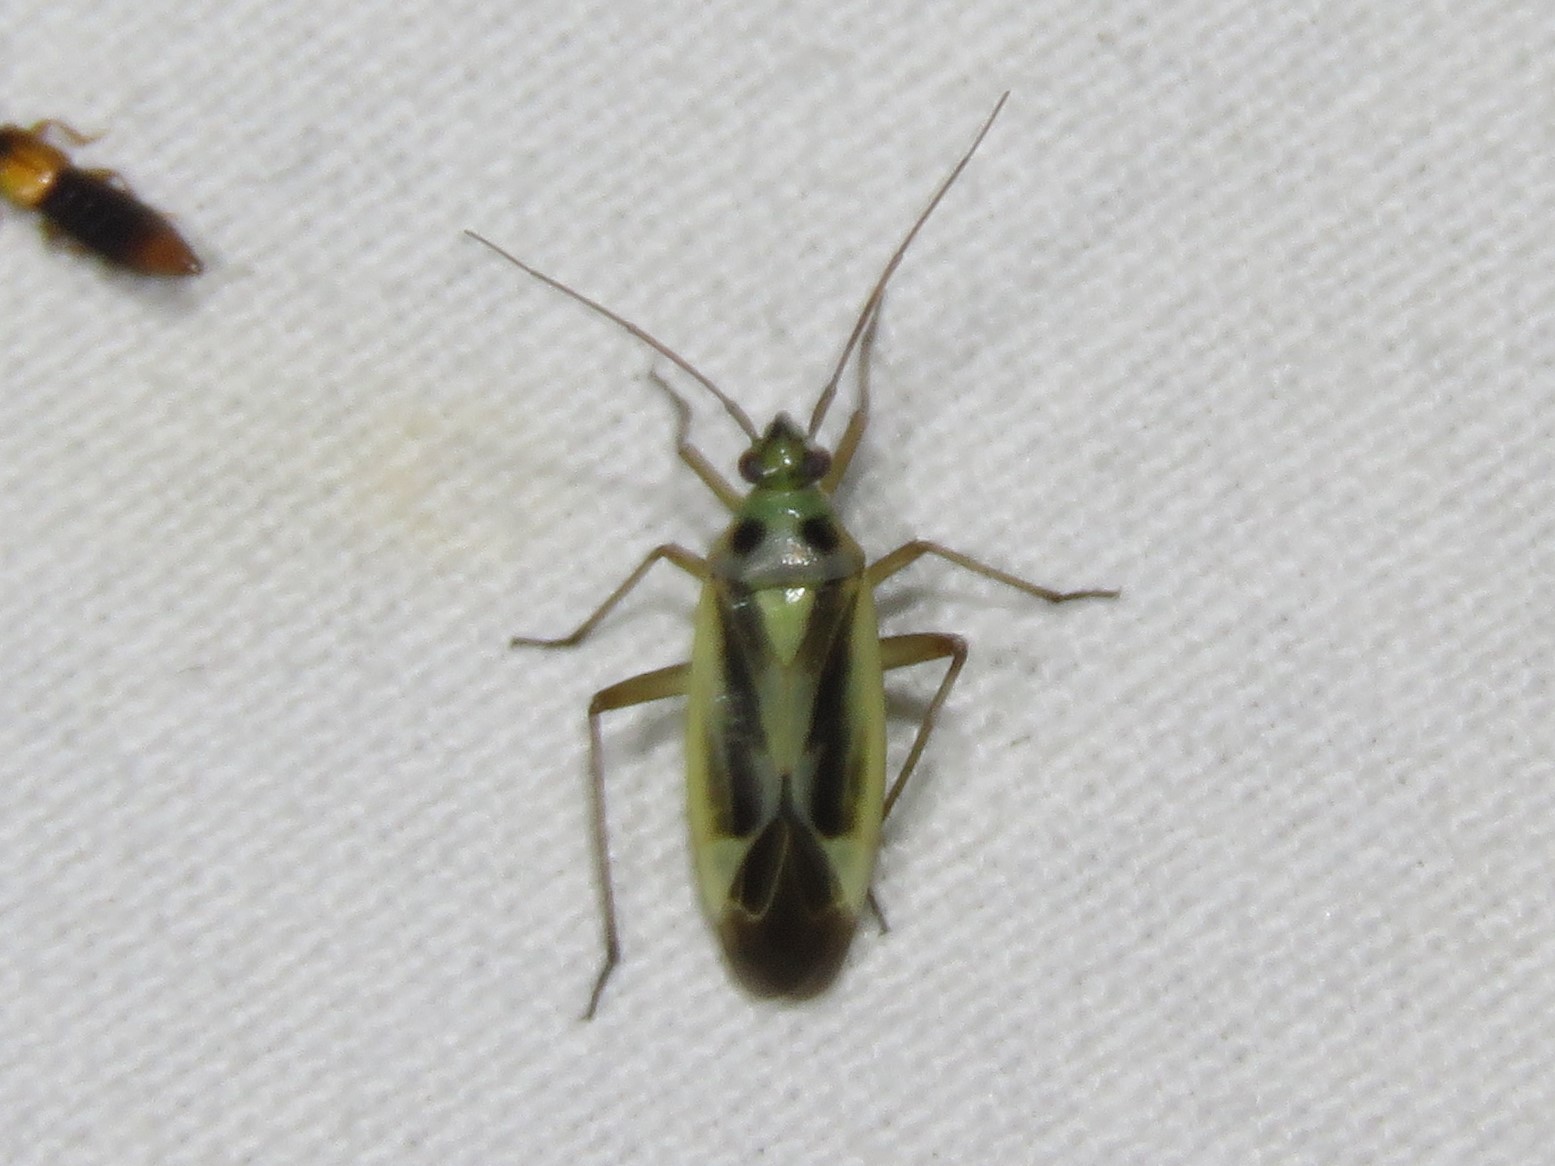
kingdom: Animalia
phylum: Arthropoda
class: Insecta
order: Hemiptera
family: Miridae
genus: Stenotus
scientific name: Stenotus binotatus
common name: Plant bug
